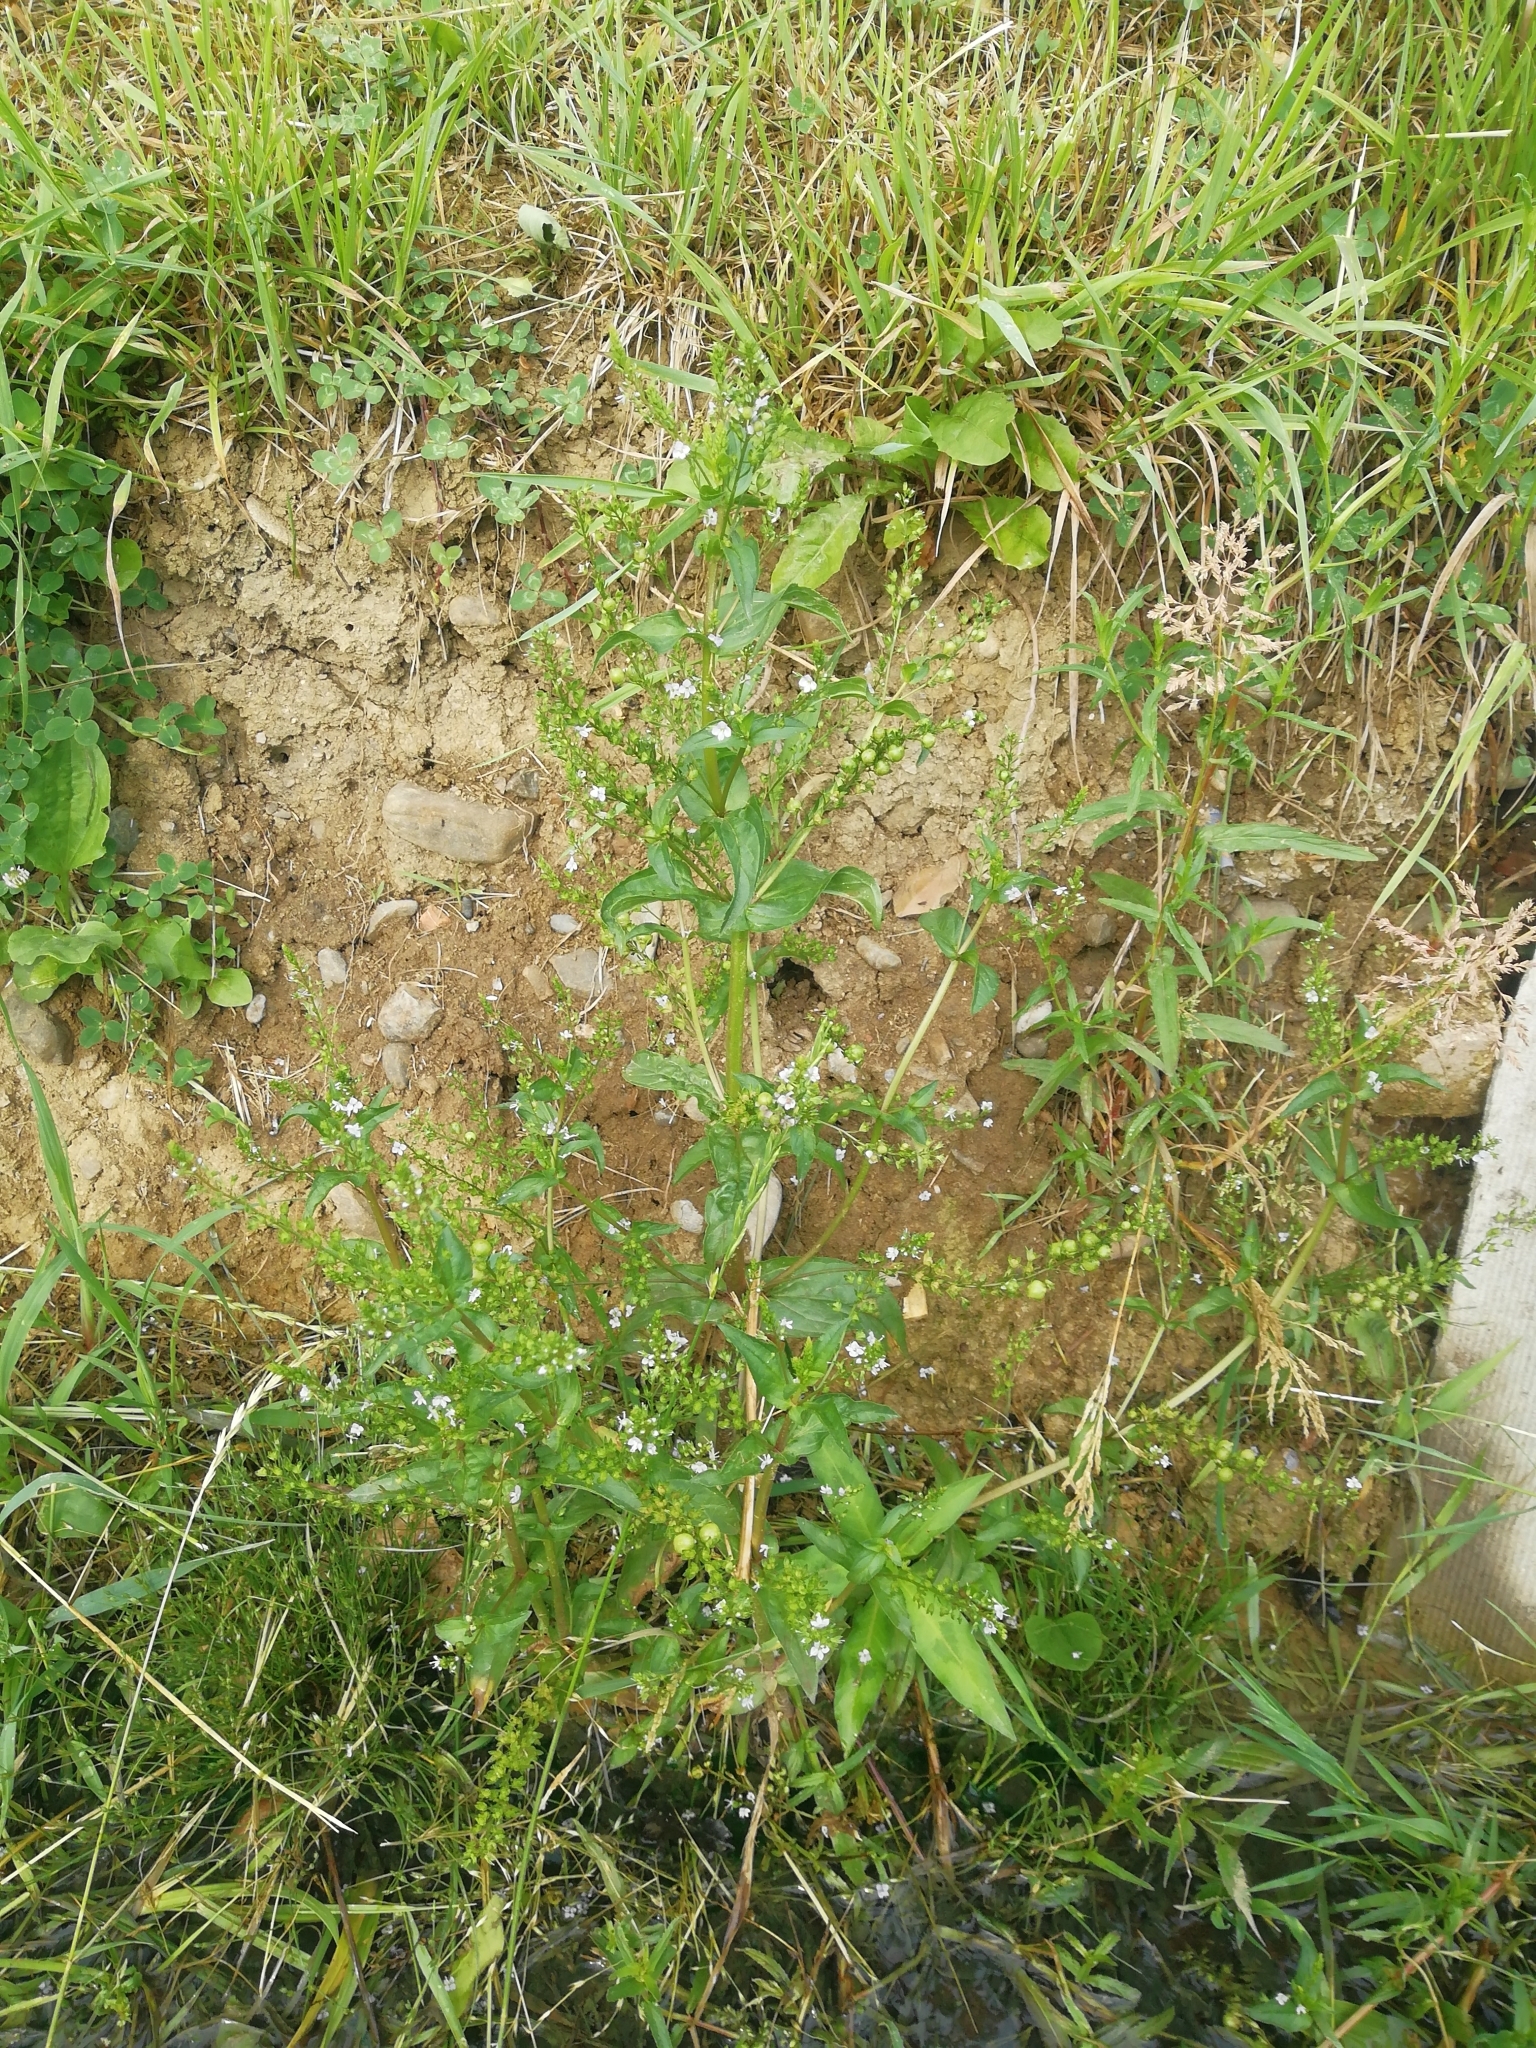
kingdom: Plantae
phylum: Tracheophyta
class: Magnoliopsida
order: Lamiales
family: Plantaginaceae
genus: Veronica
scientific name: Veronica anagallis-aquatica
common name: Water speedwell
